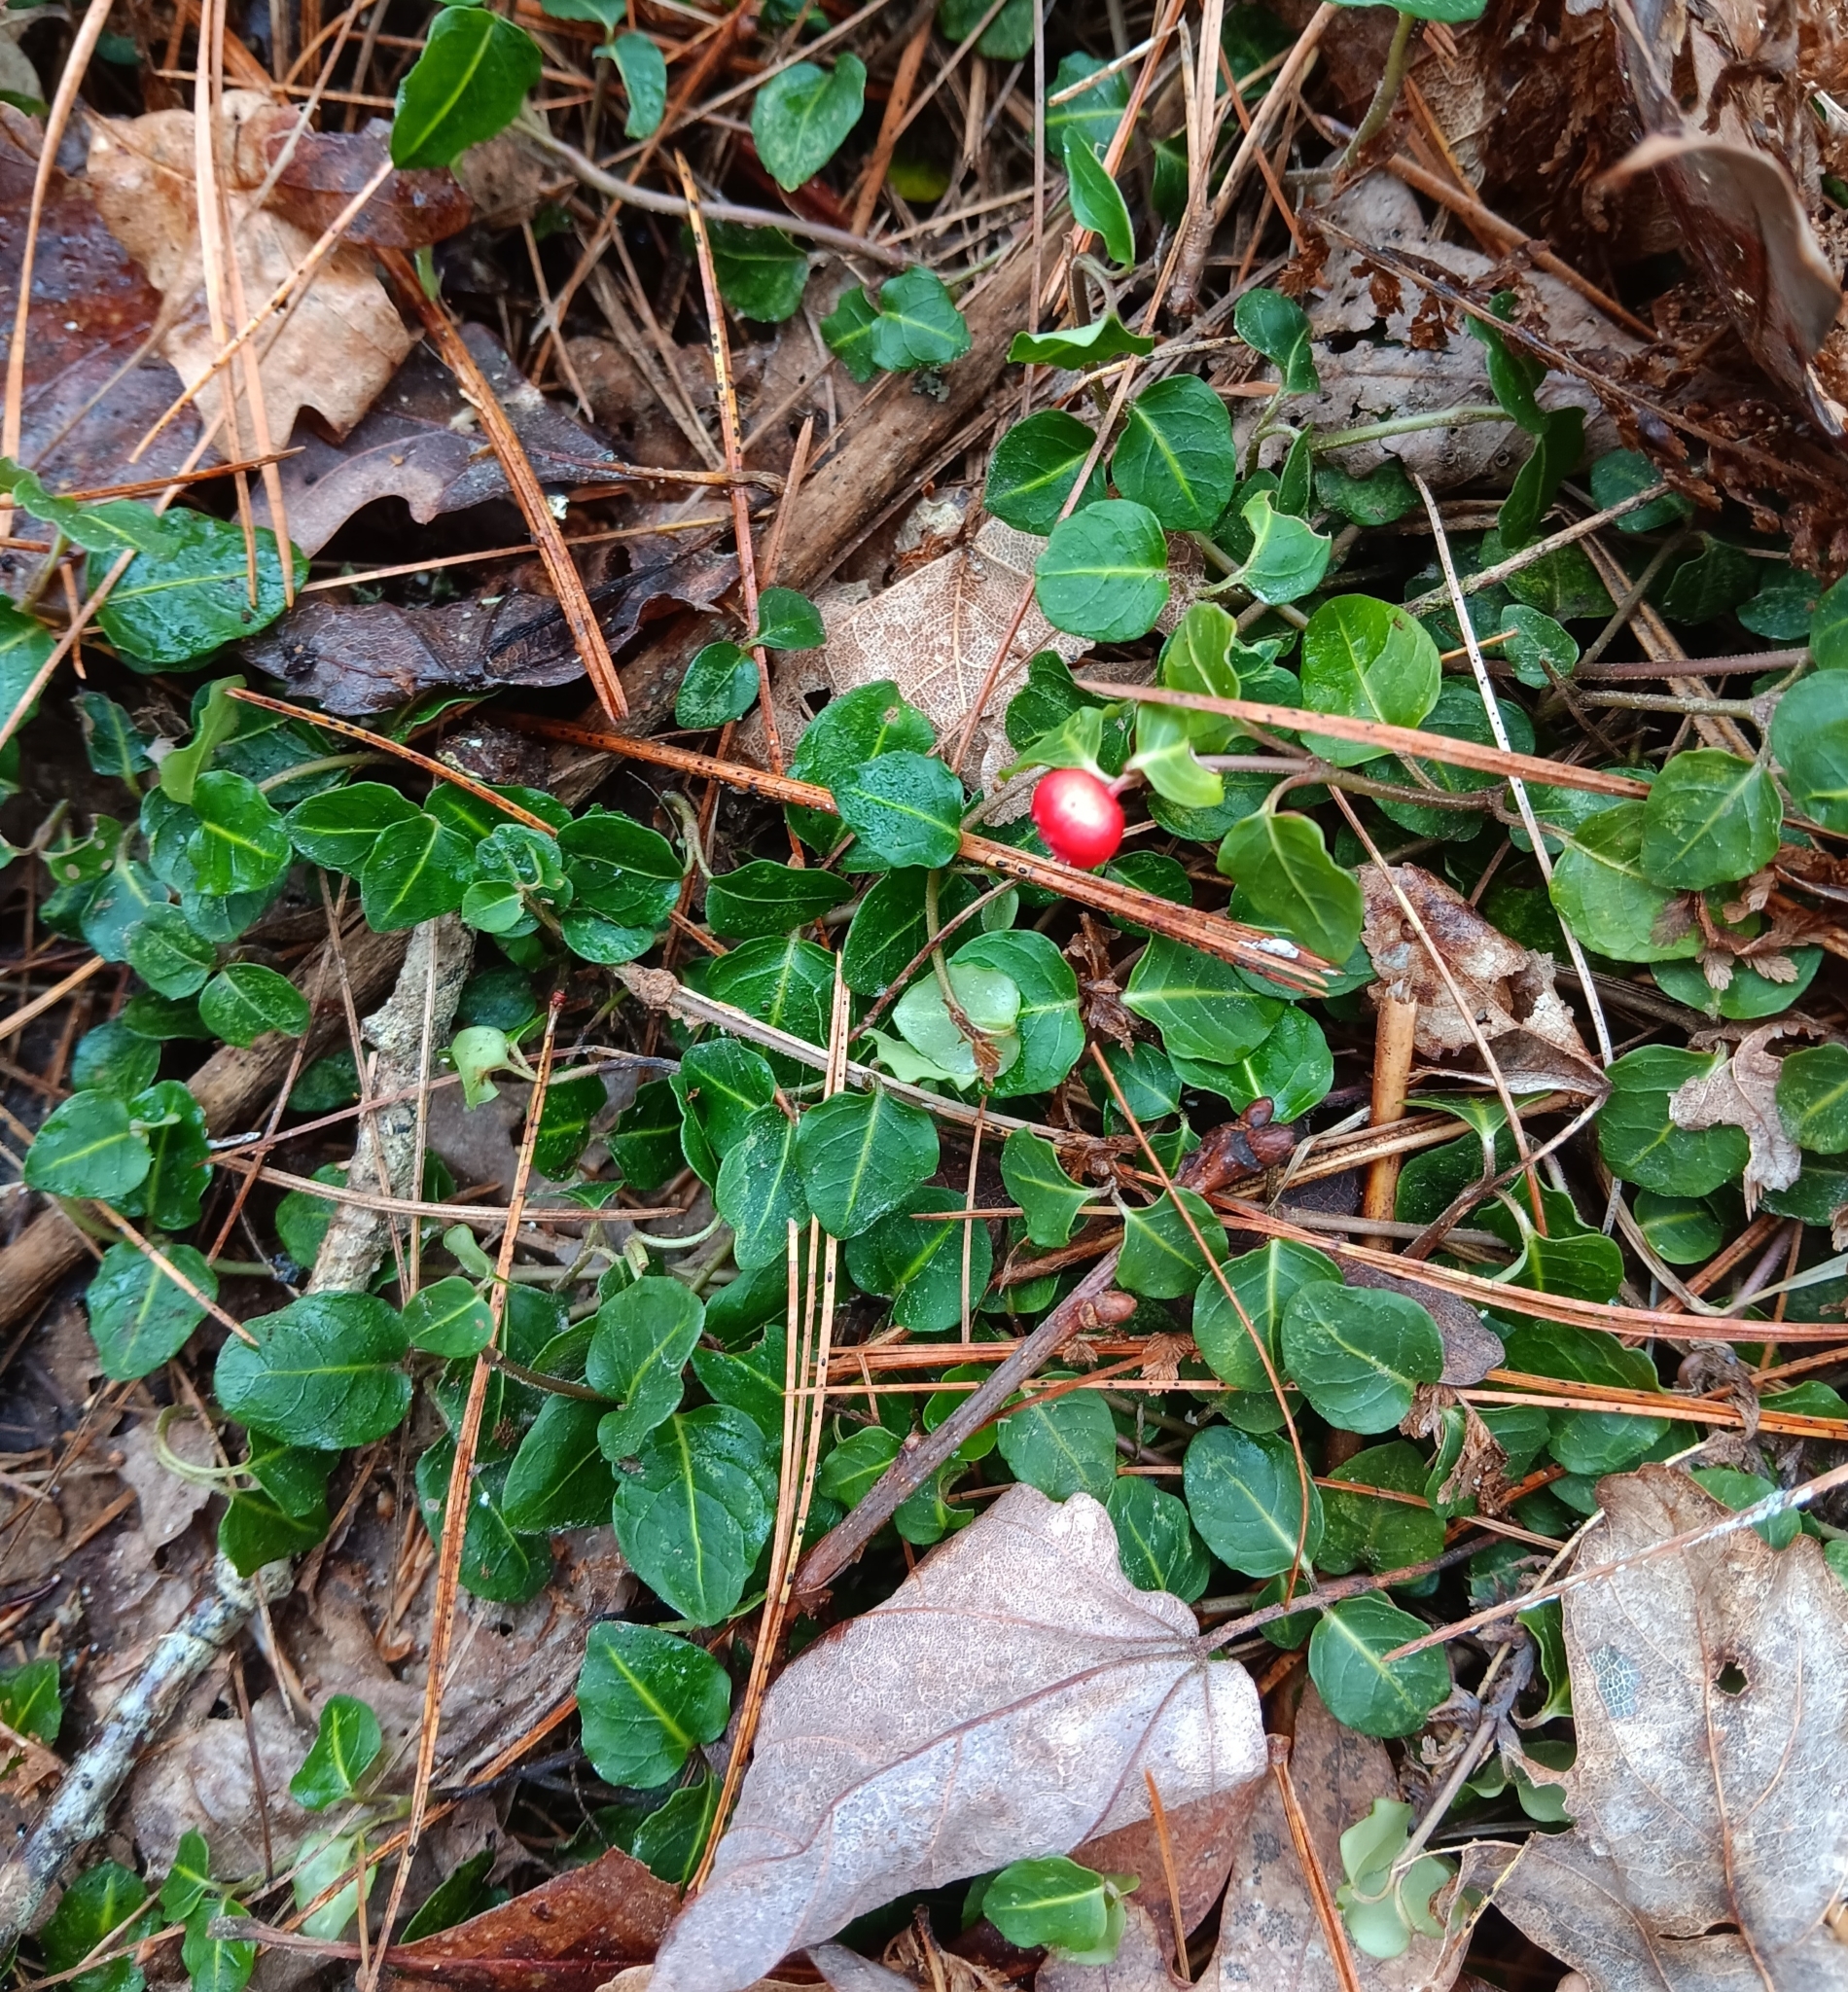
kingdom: Plantae
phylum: Tracheophyta
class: Magnoliopsida
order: Gentianales
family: Rubiaceae
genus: Mitchella
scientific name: Mitchella repens
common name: Partridge-berry
